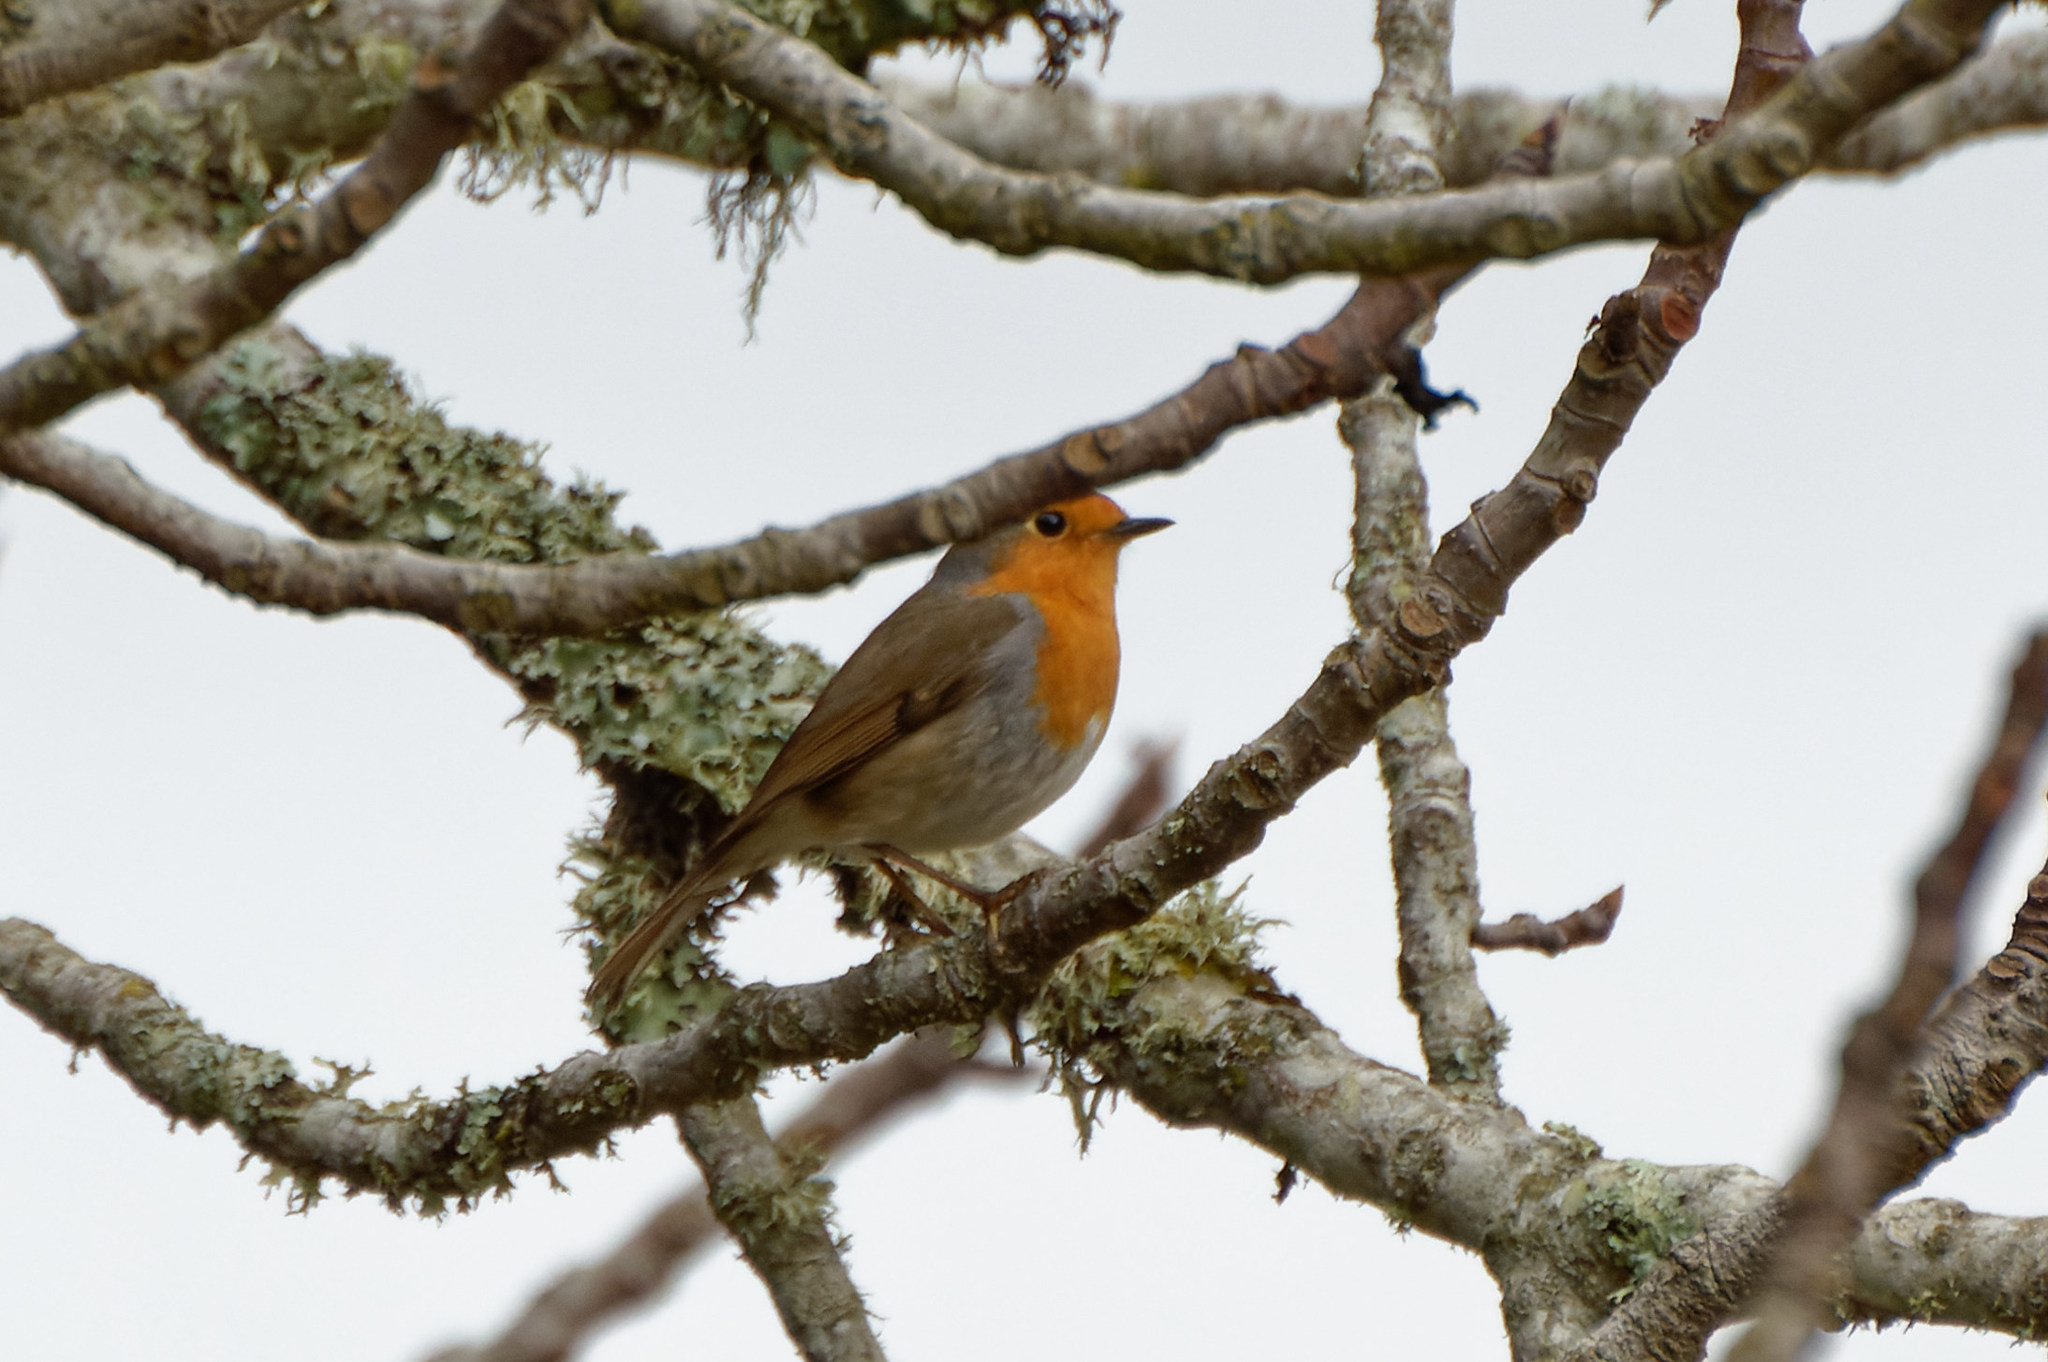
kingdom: Animalia
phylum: Chordata
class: Aves
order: Passeriformes
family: Muscicapidae
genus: Erithacus
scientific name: Erithacus rubecula
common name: European robin
